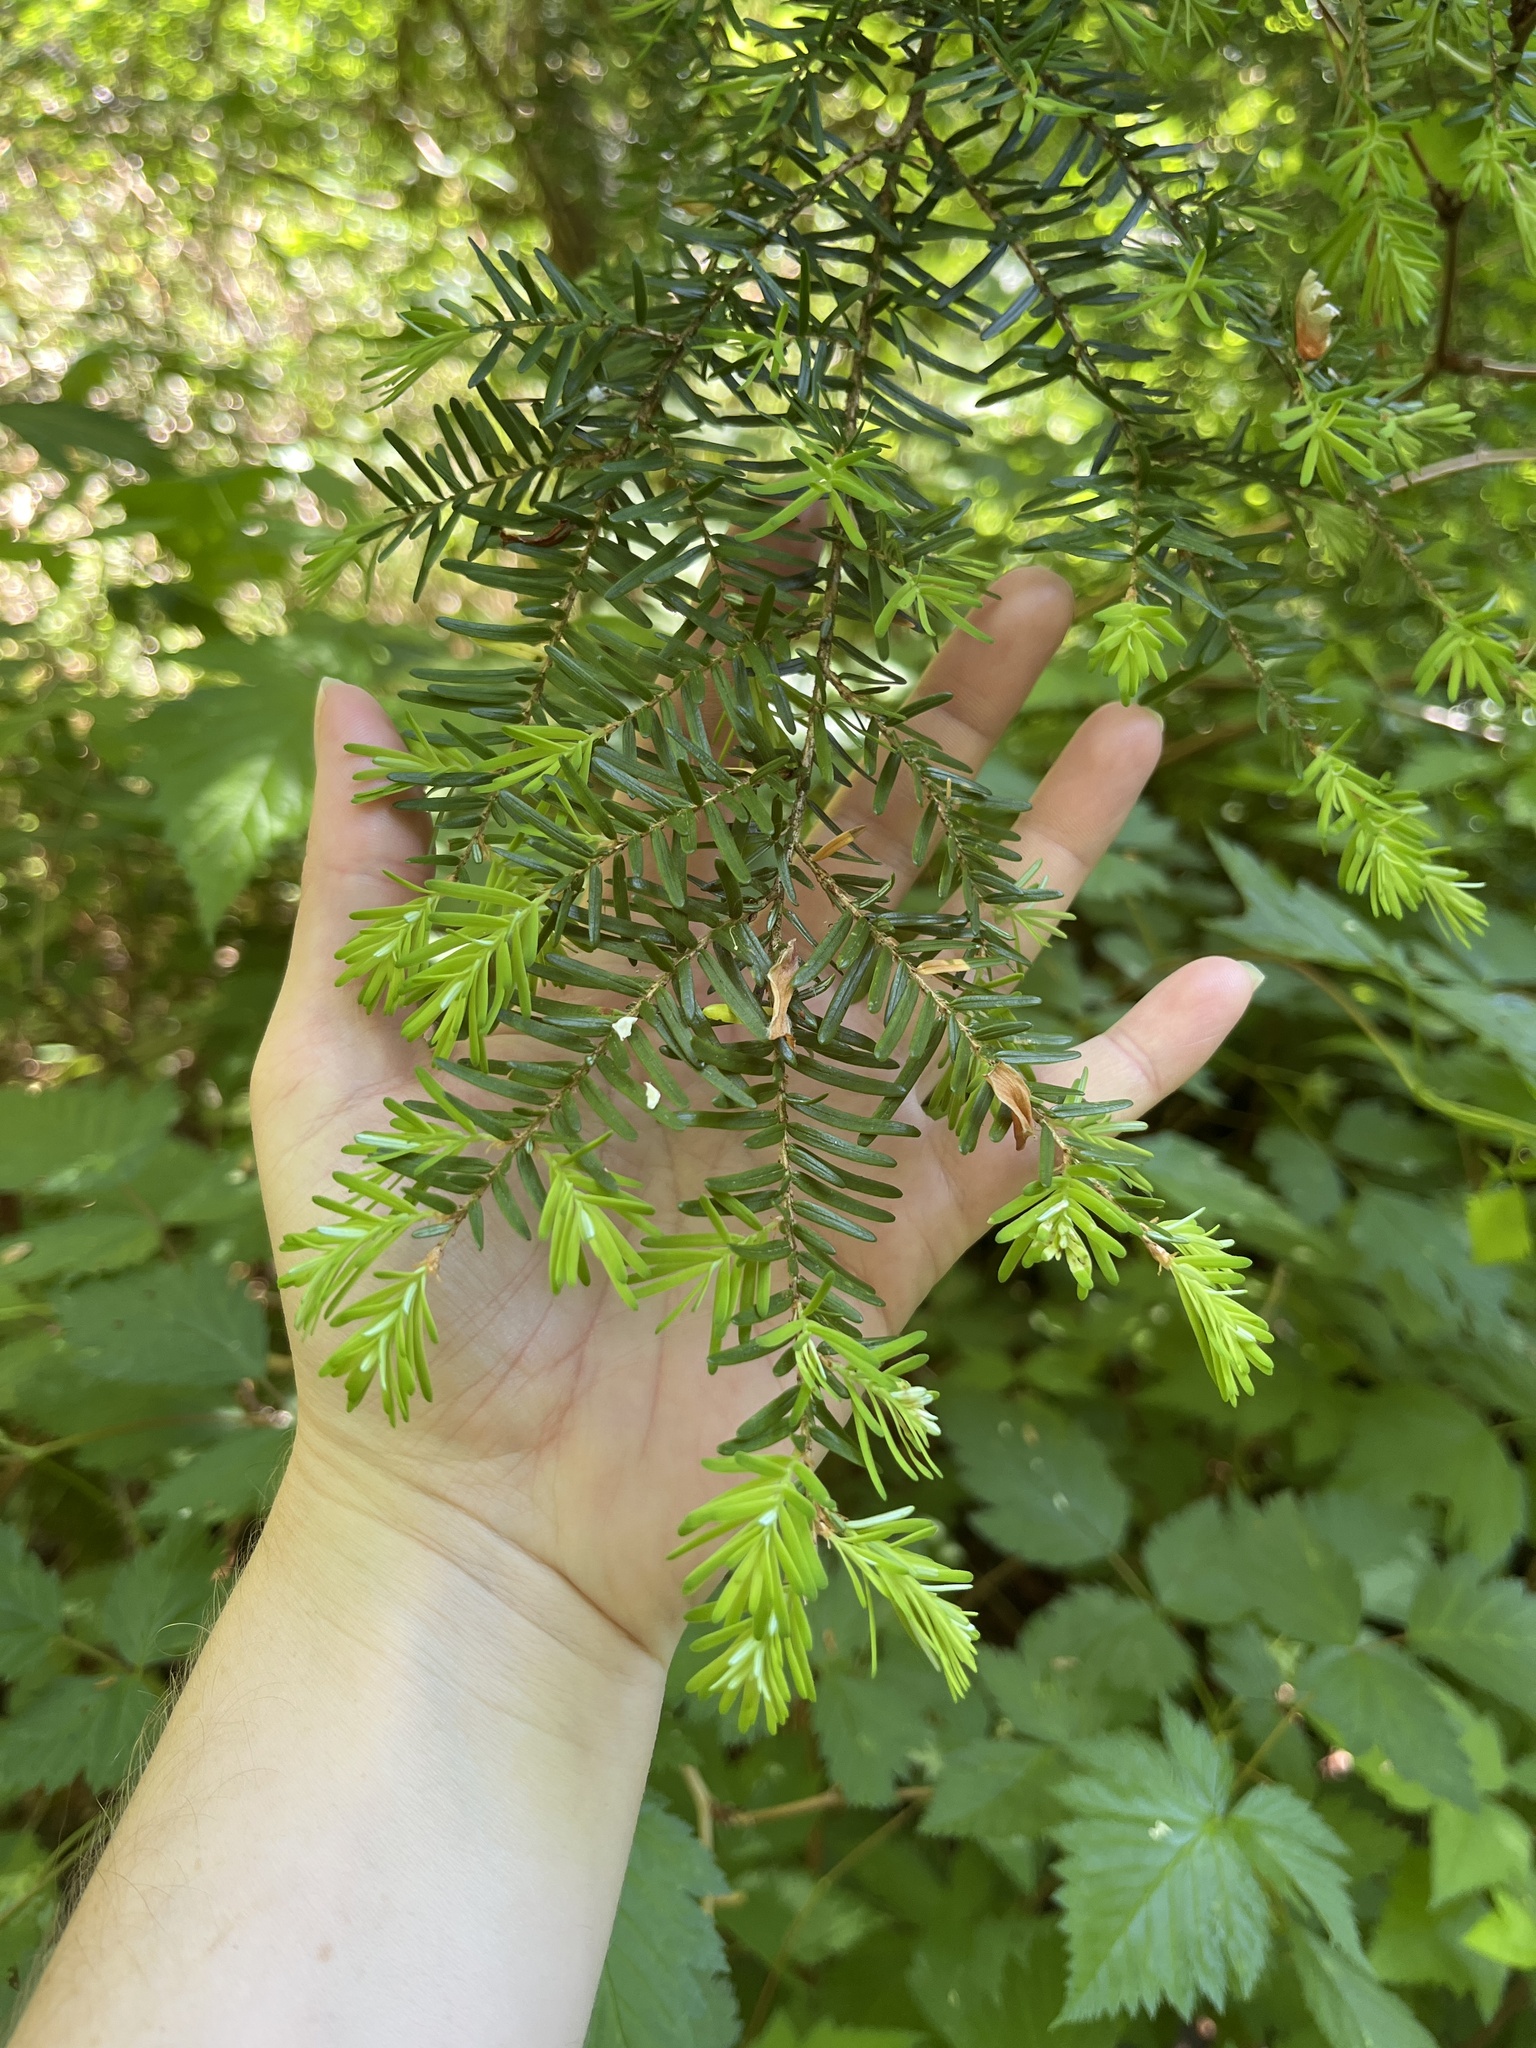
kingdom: Plantae
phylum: Tracheophyta
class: Pinopsida
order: Pinales
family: Pinaceae
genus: Tsuga
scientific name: Tsuga heterophylla
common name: Western hemlock
